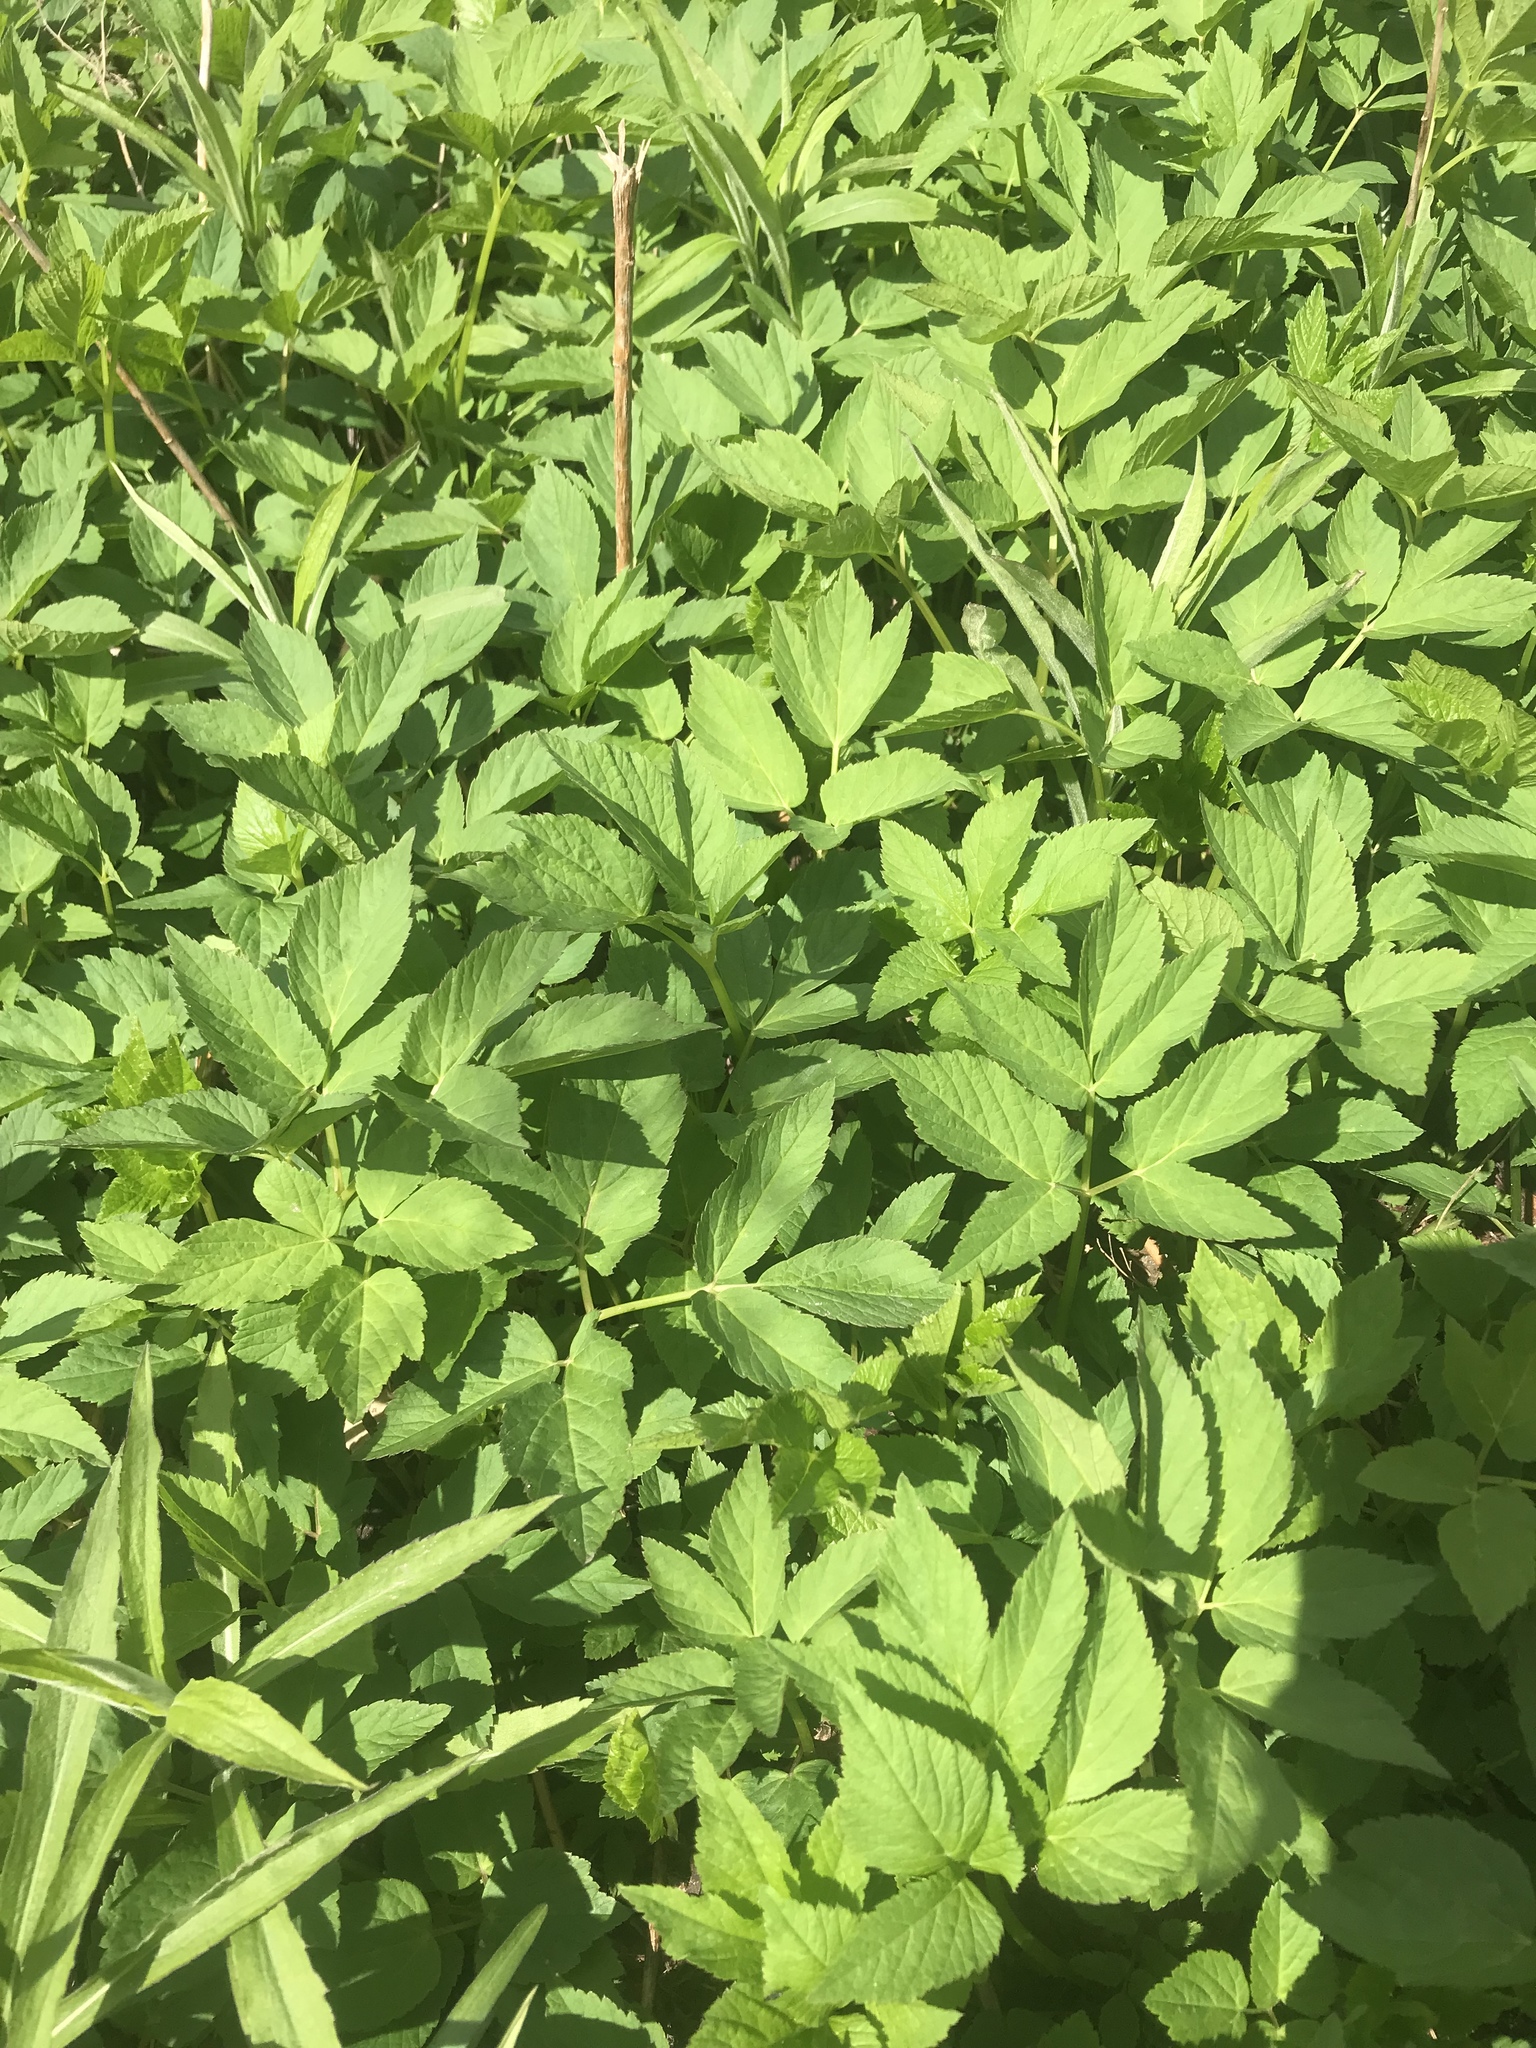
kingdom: Plantae
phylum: Tracheophyta
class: Magnoliopsida
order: Apiales
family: Apiaceae
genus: Aegopodium
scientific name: Aegopodium podagraria
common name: Ground-elder
